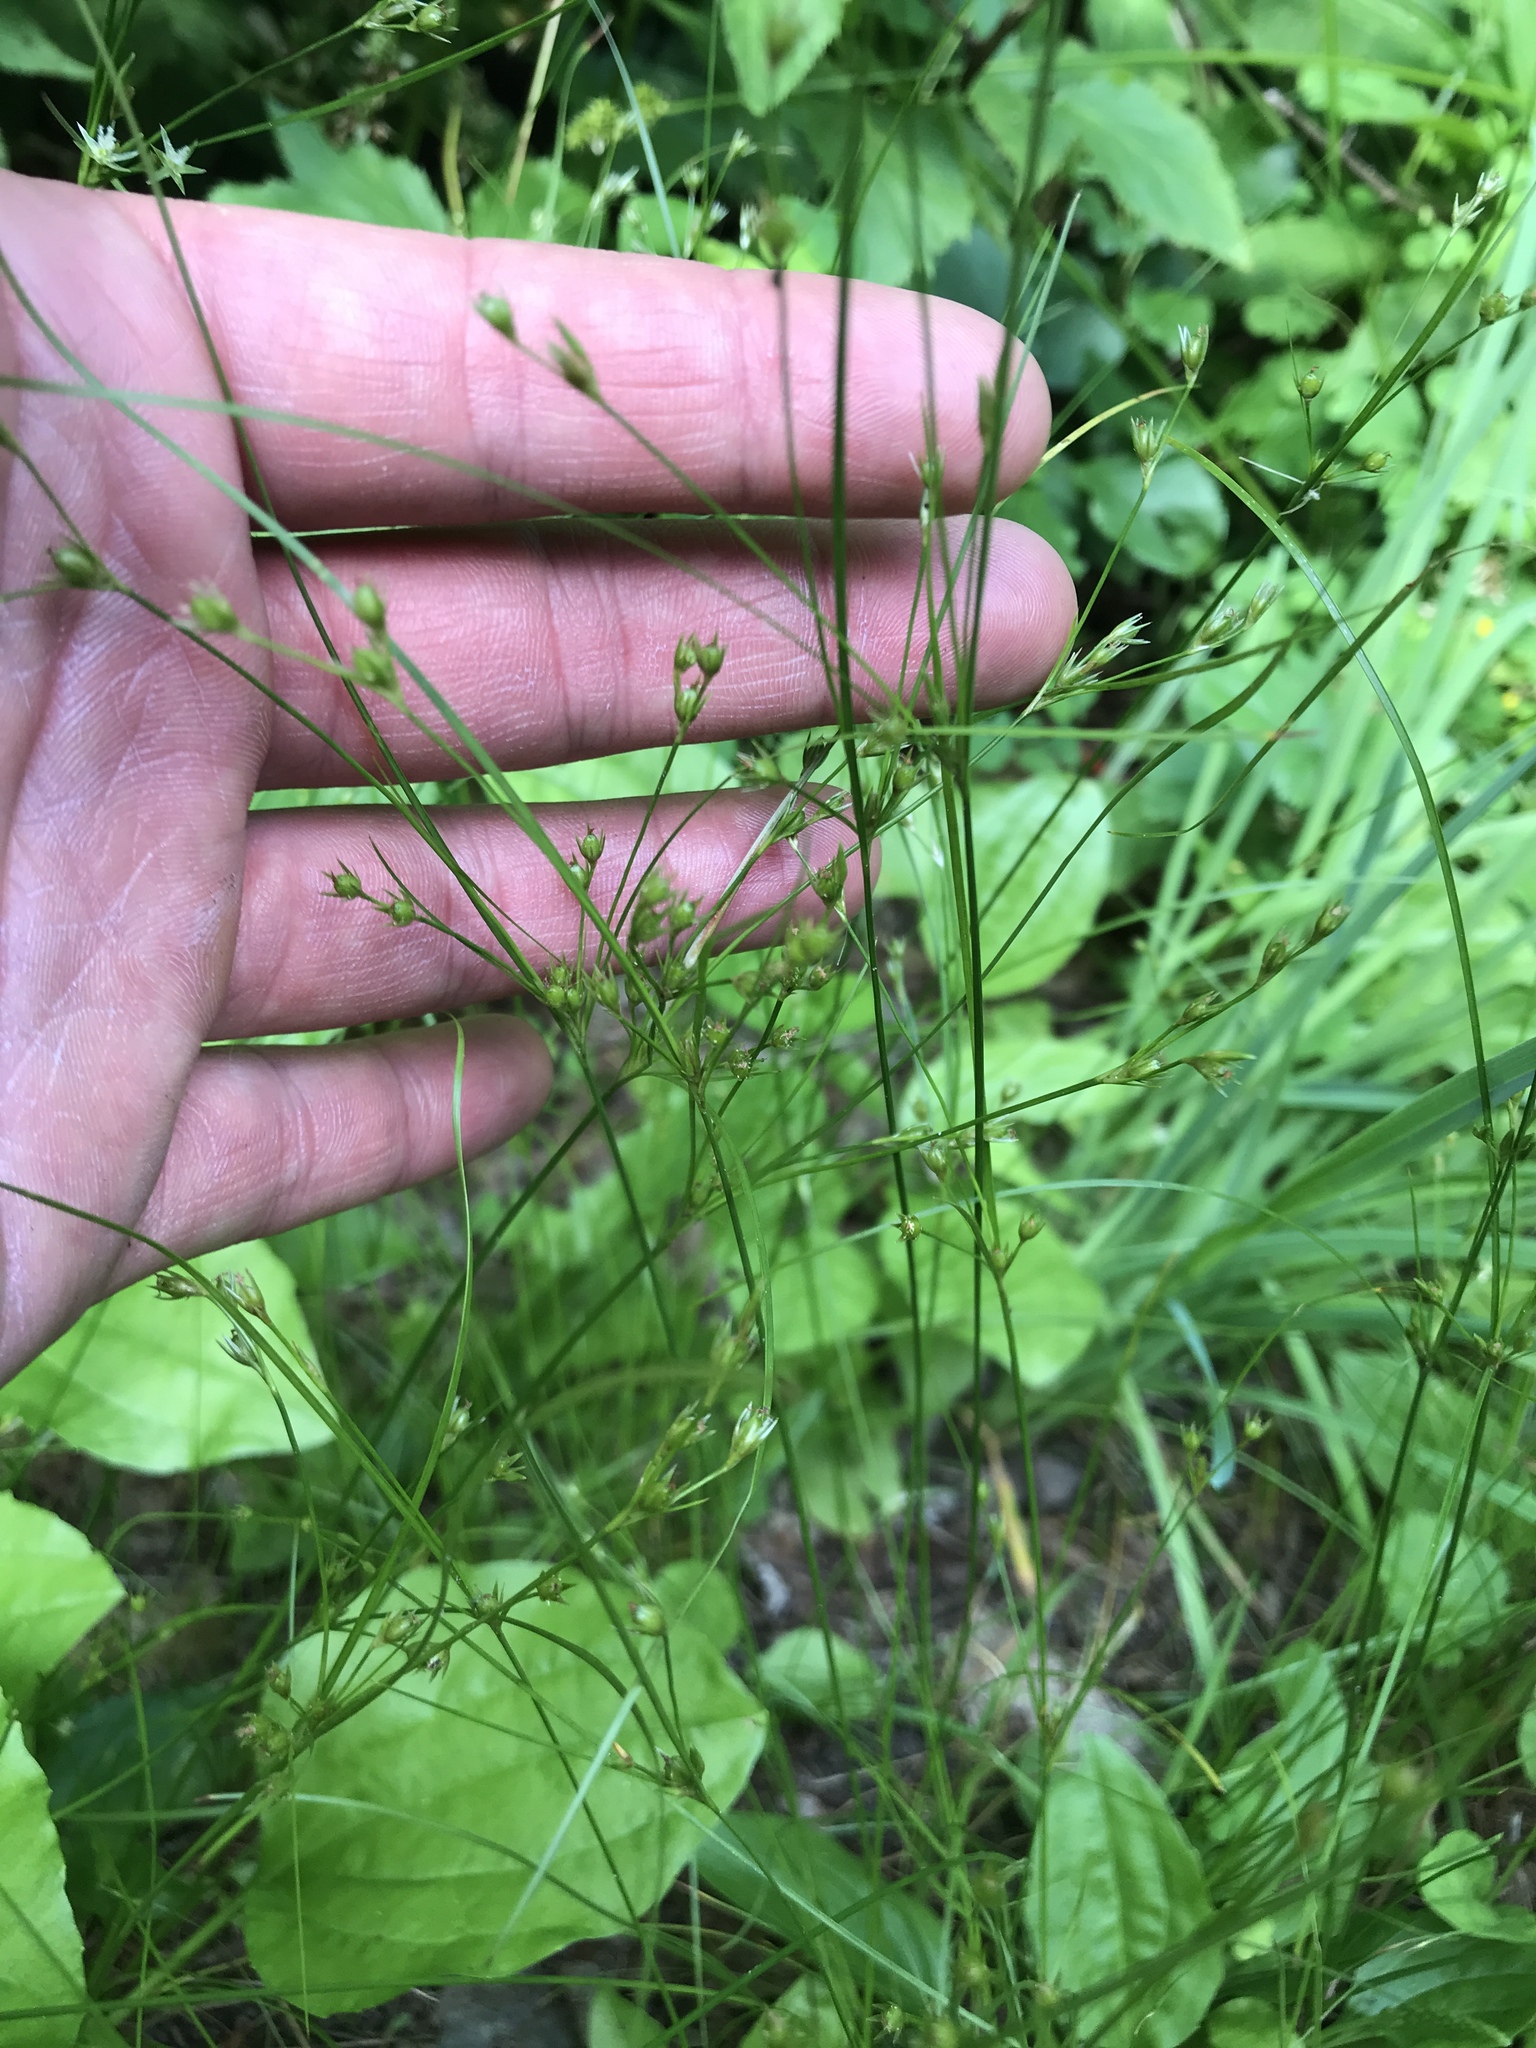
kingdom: Plantae
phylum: Tracheophyta
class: Liliopsida
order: Poales
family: Juncaceae
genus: Juncus
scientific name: Juncus tenuis
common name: Slender rush
